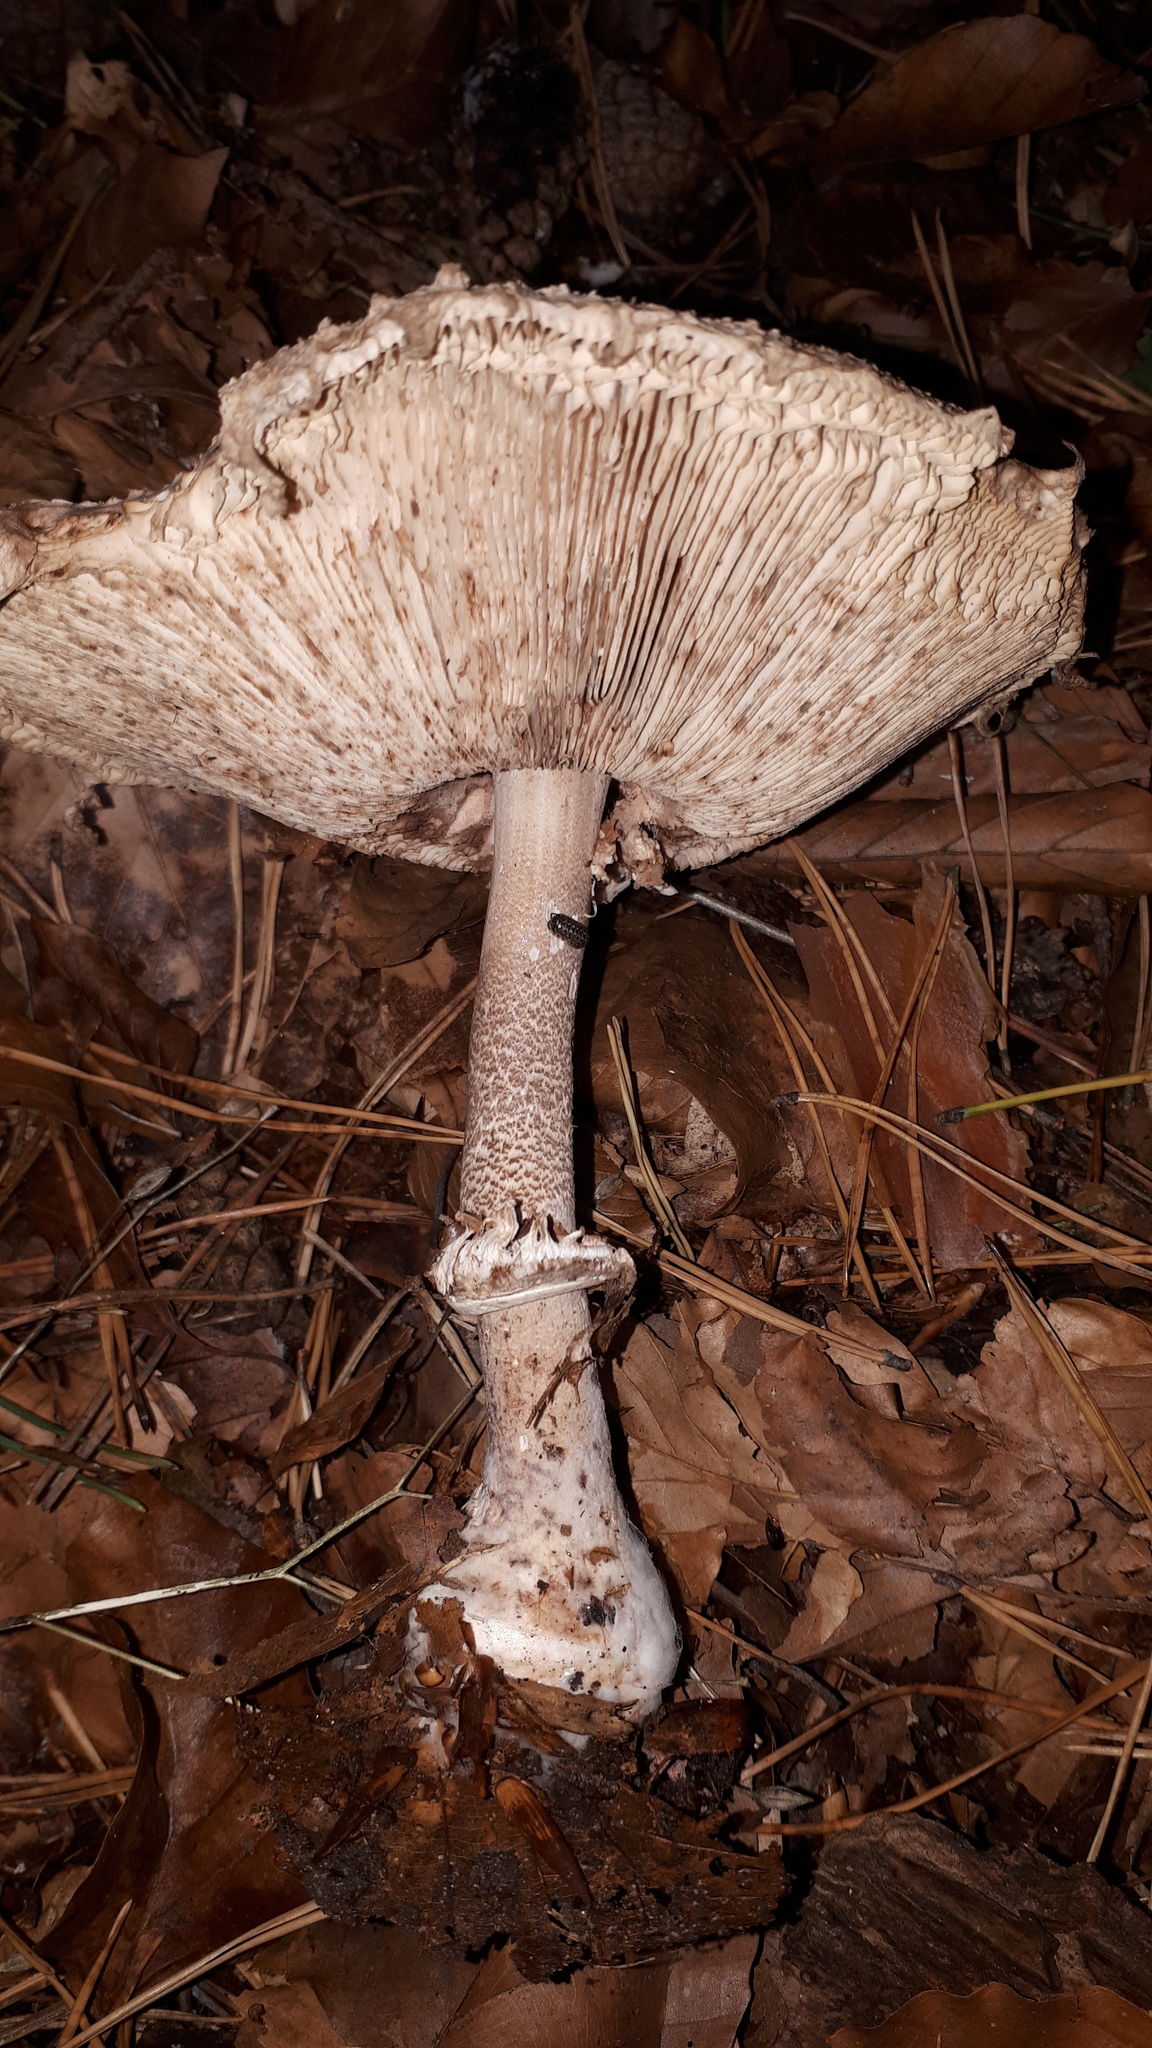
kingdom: Fungi
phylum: Basidiomycota
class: Agaricomycetes
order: Agaricales
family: Agaricaceae
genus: Macrolepiota
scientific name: Macrolepiota procera
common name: Parasol
